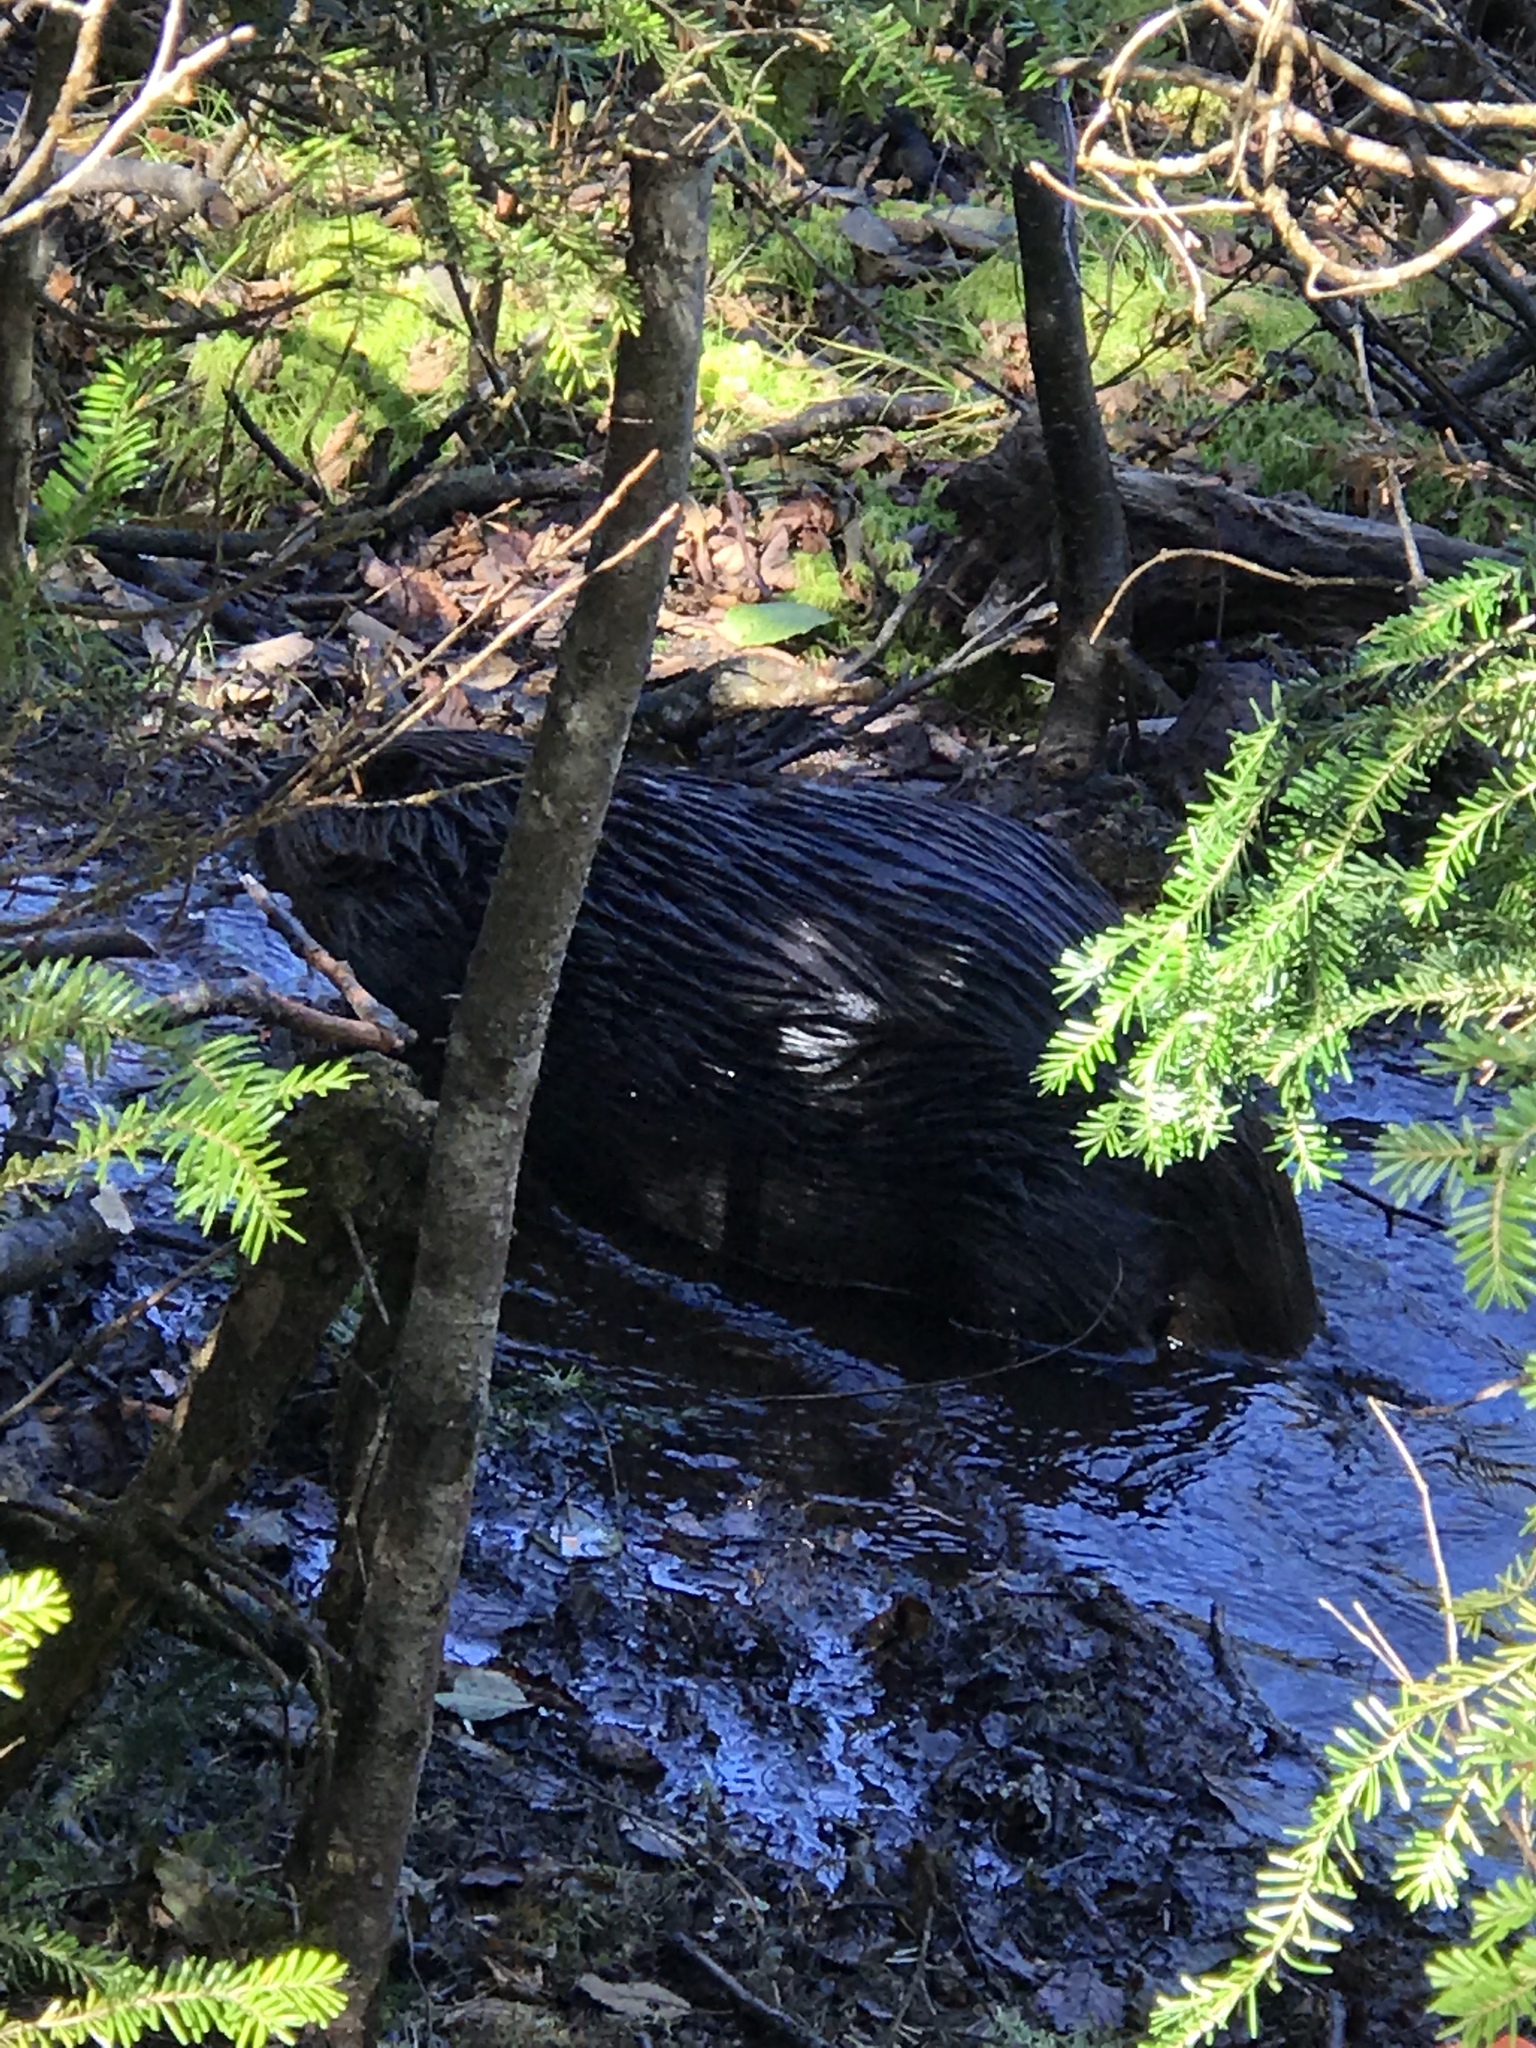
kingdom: Animalia
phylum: Chordata
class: Mammalia
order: Rodentia
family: Castoridae
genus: Castor
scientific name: Castor canadensis
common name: American beaver
